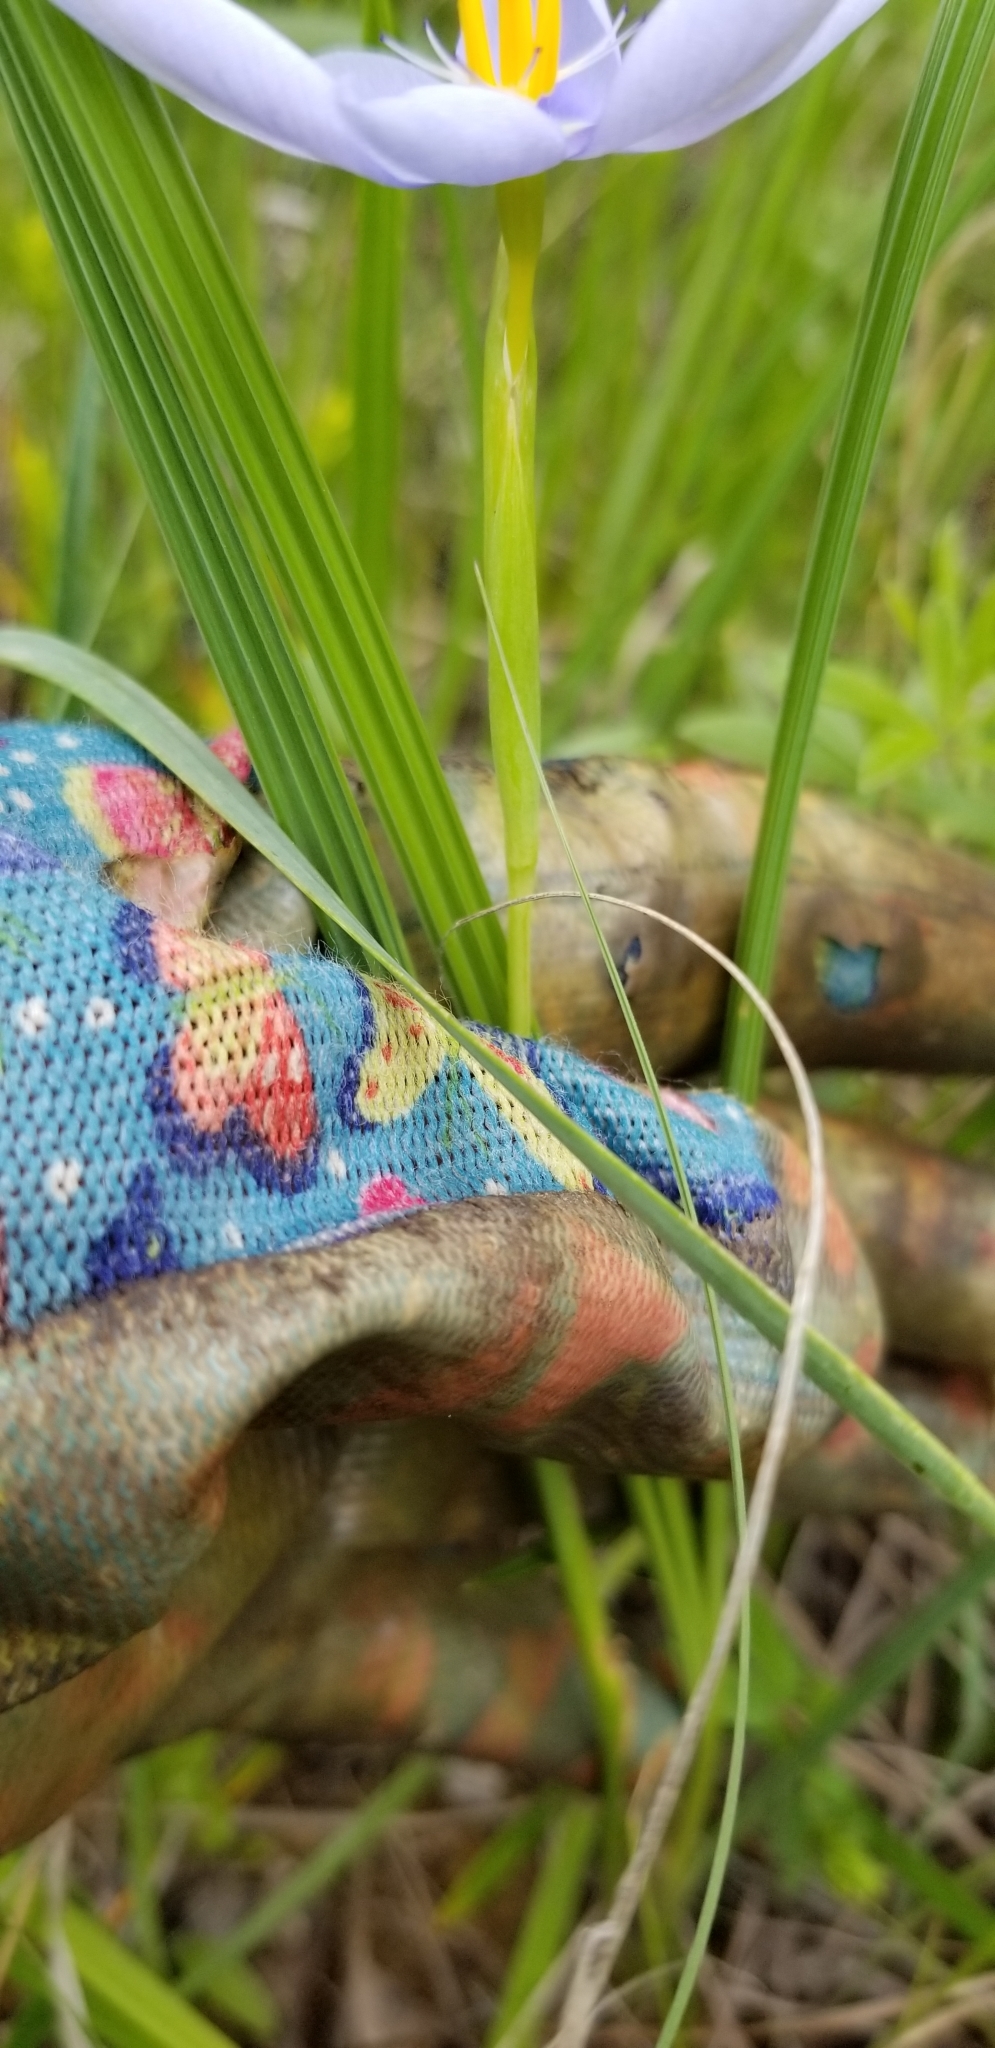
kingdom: Plantae
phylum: Tracheophyta
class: Liliopsida
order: Asparagales
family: Iridaceae
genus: Nemastylis
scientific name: Nemastylis geminiflora
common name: Prairie celestial
